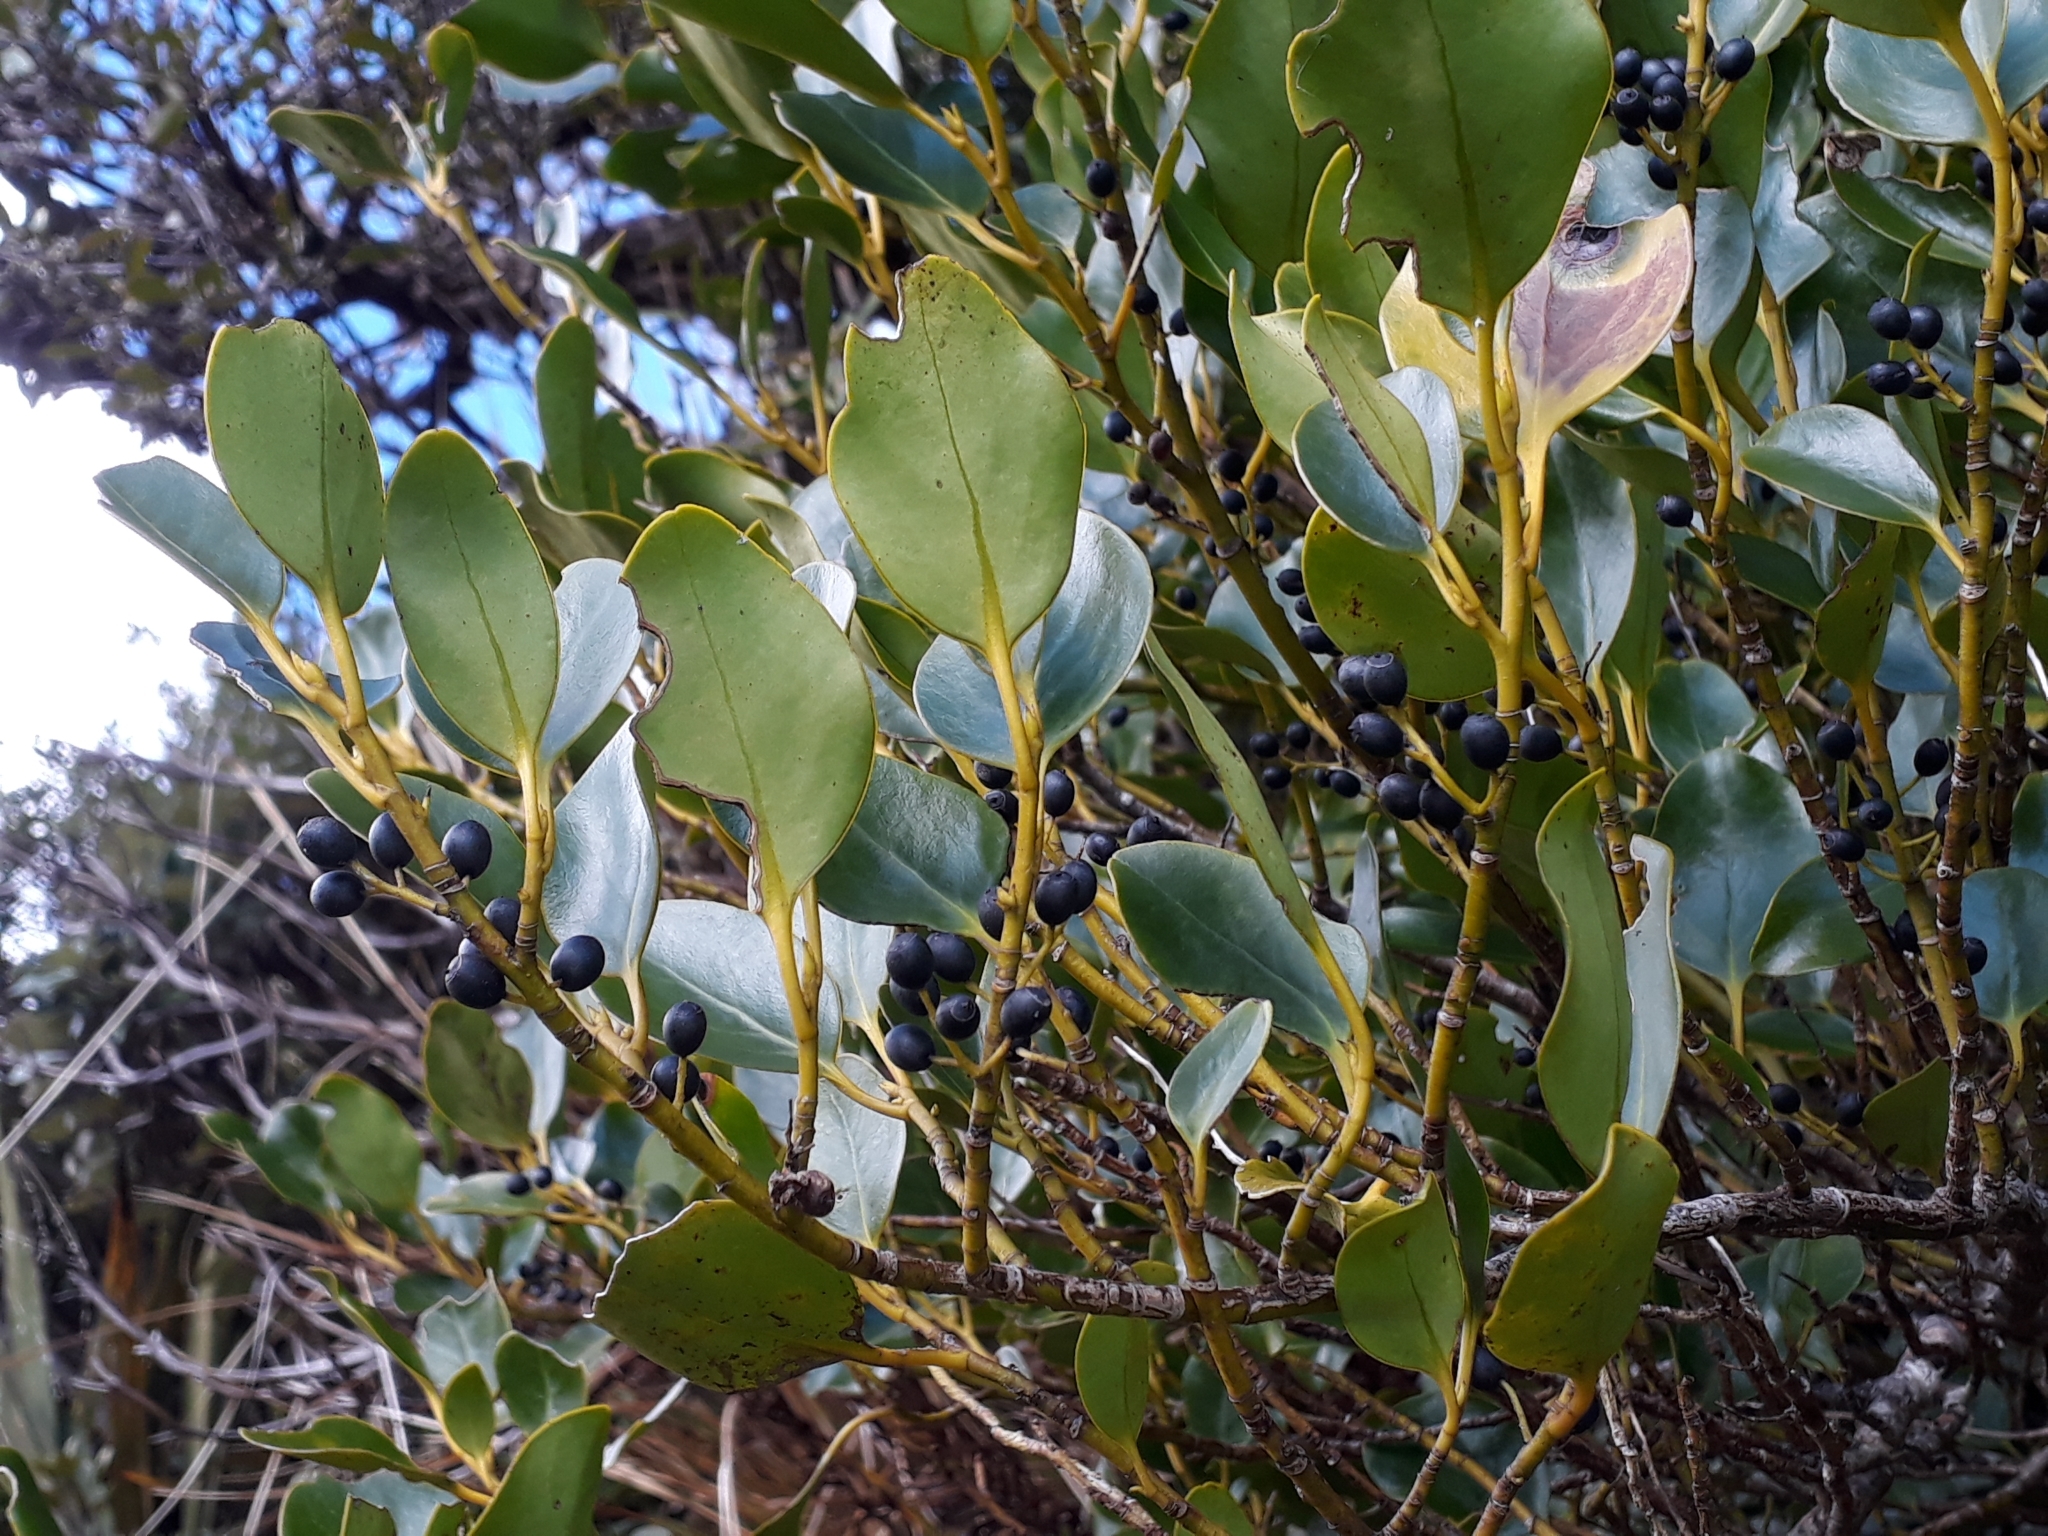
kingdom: Plantae
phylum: Tracheophyta
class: Magnoliopsida
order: Apiales
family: Griseliniaceae
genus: Griselinia
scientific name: Griselinia littoralis
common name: New zealand broadleaf
